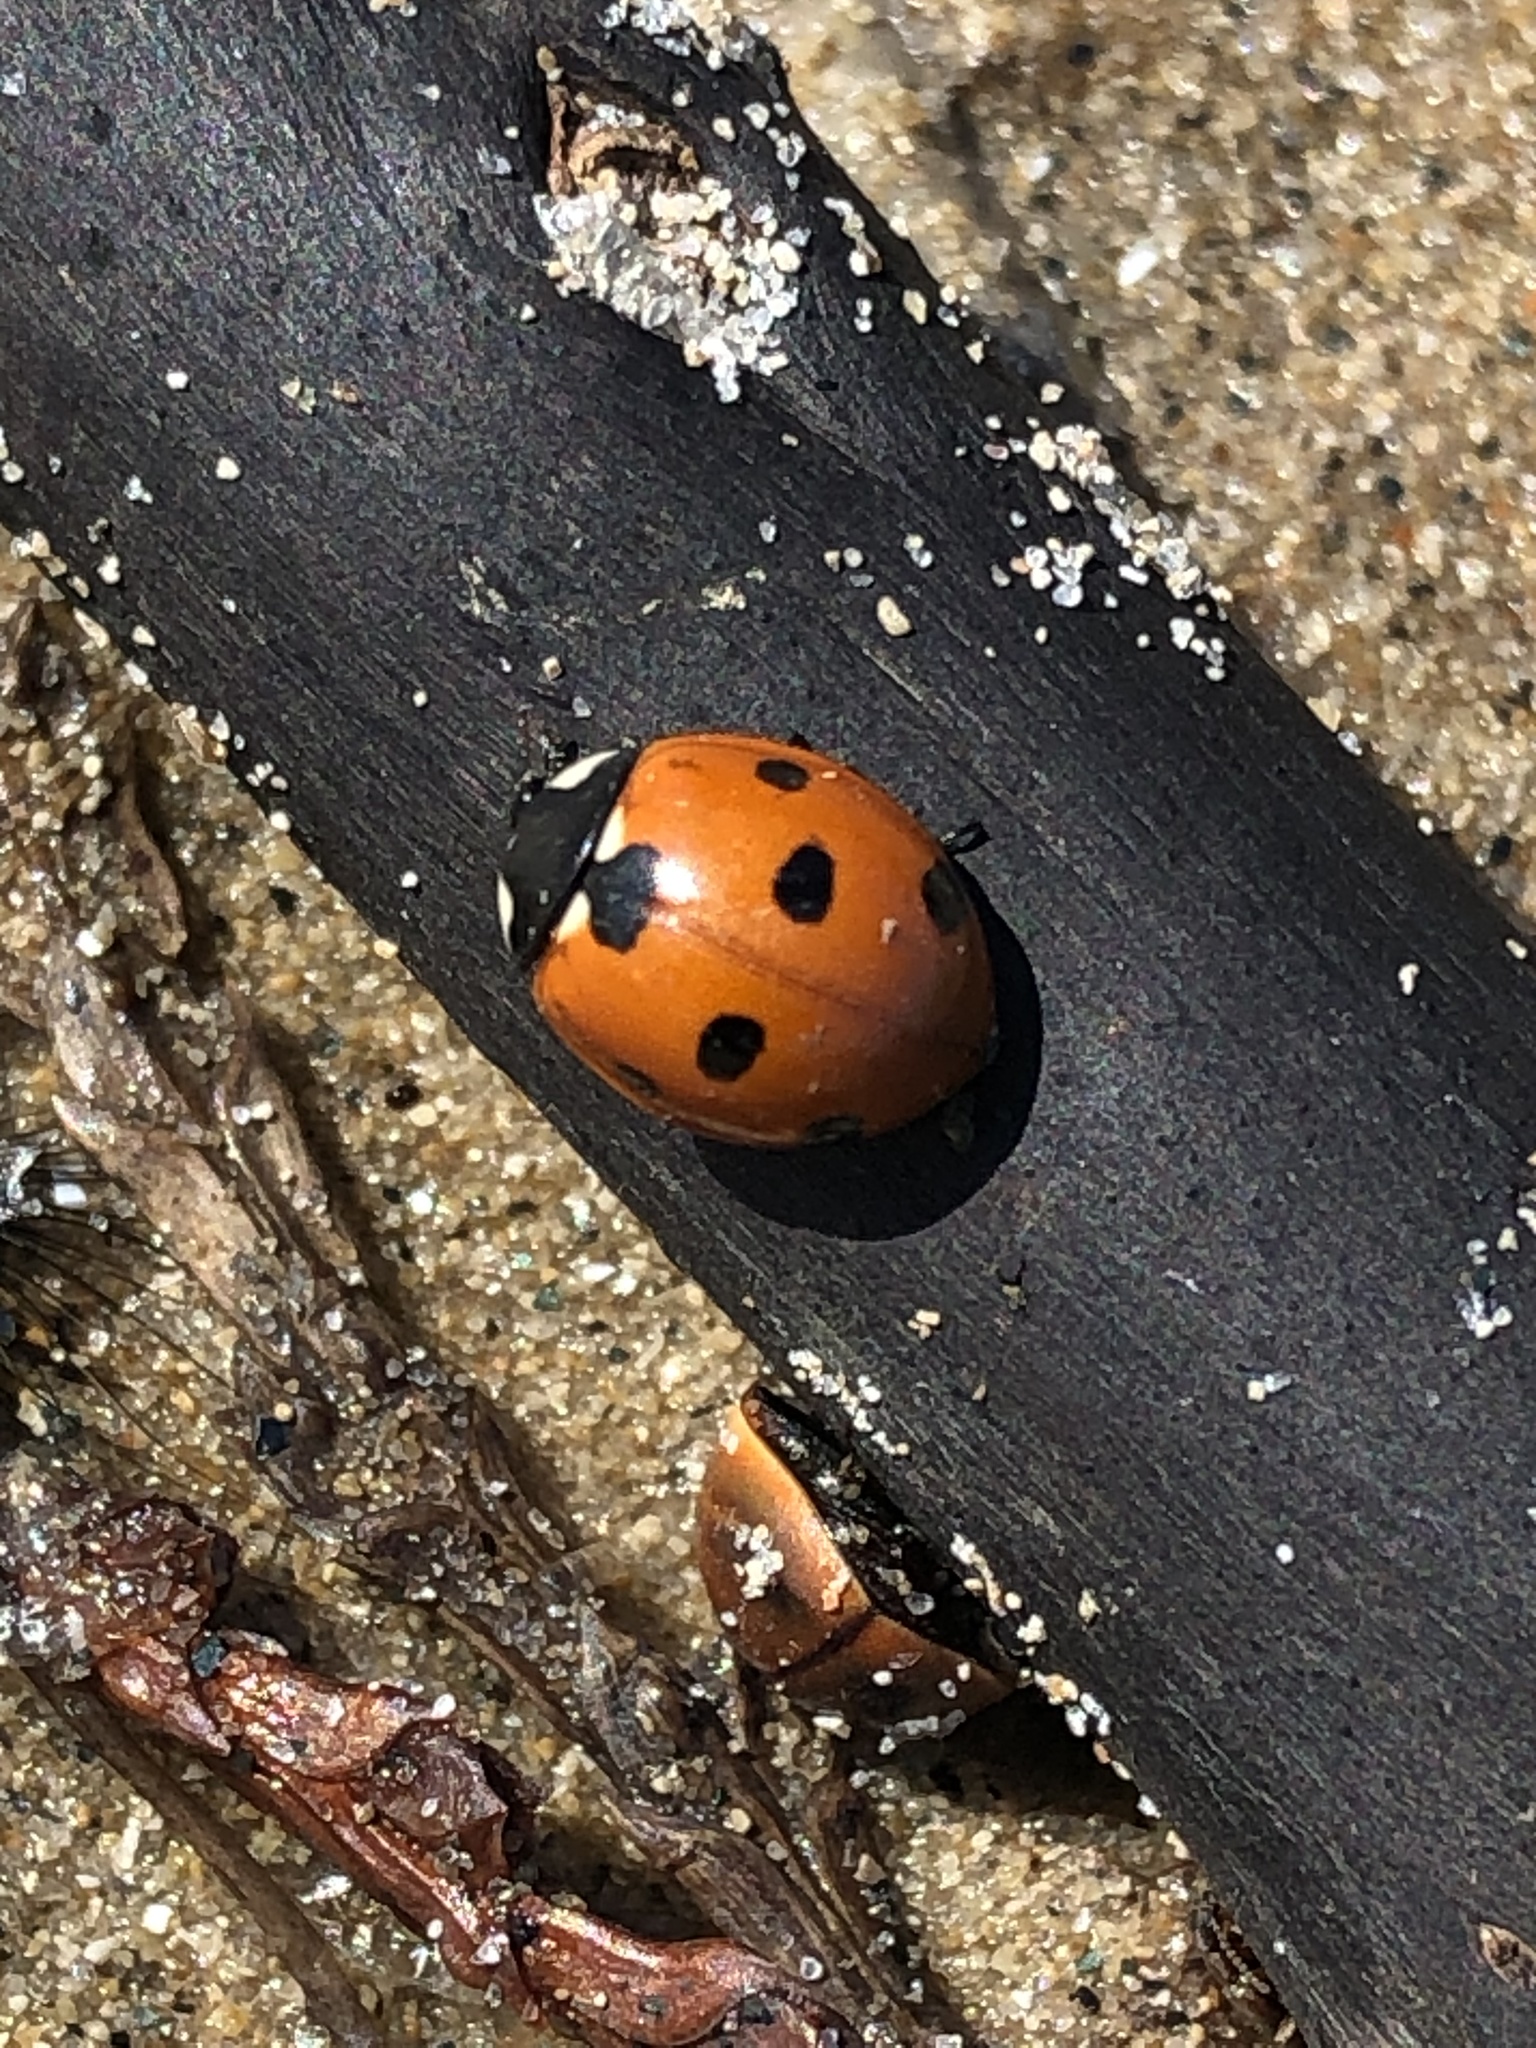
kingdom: Animalia
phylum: Arthropoda
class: Insecta
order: Coleoptera
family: Coccinellidae
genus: Coccinella
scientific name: Coccinella septempunctata
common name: Sevenspotted lady beetle
